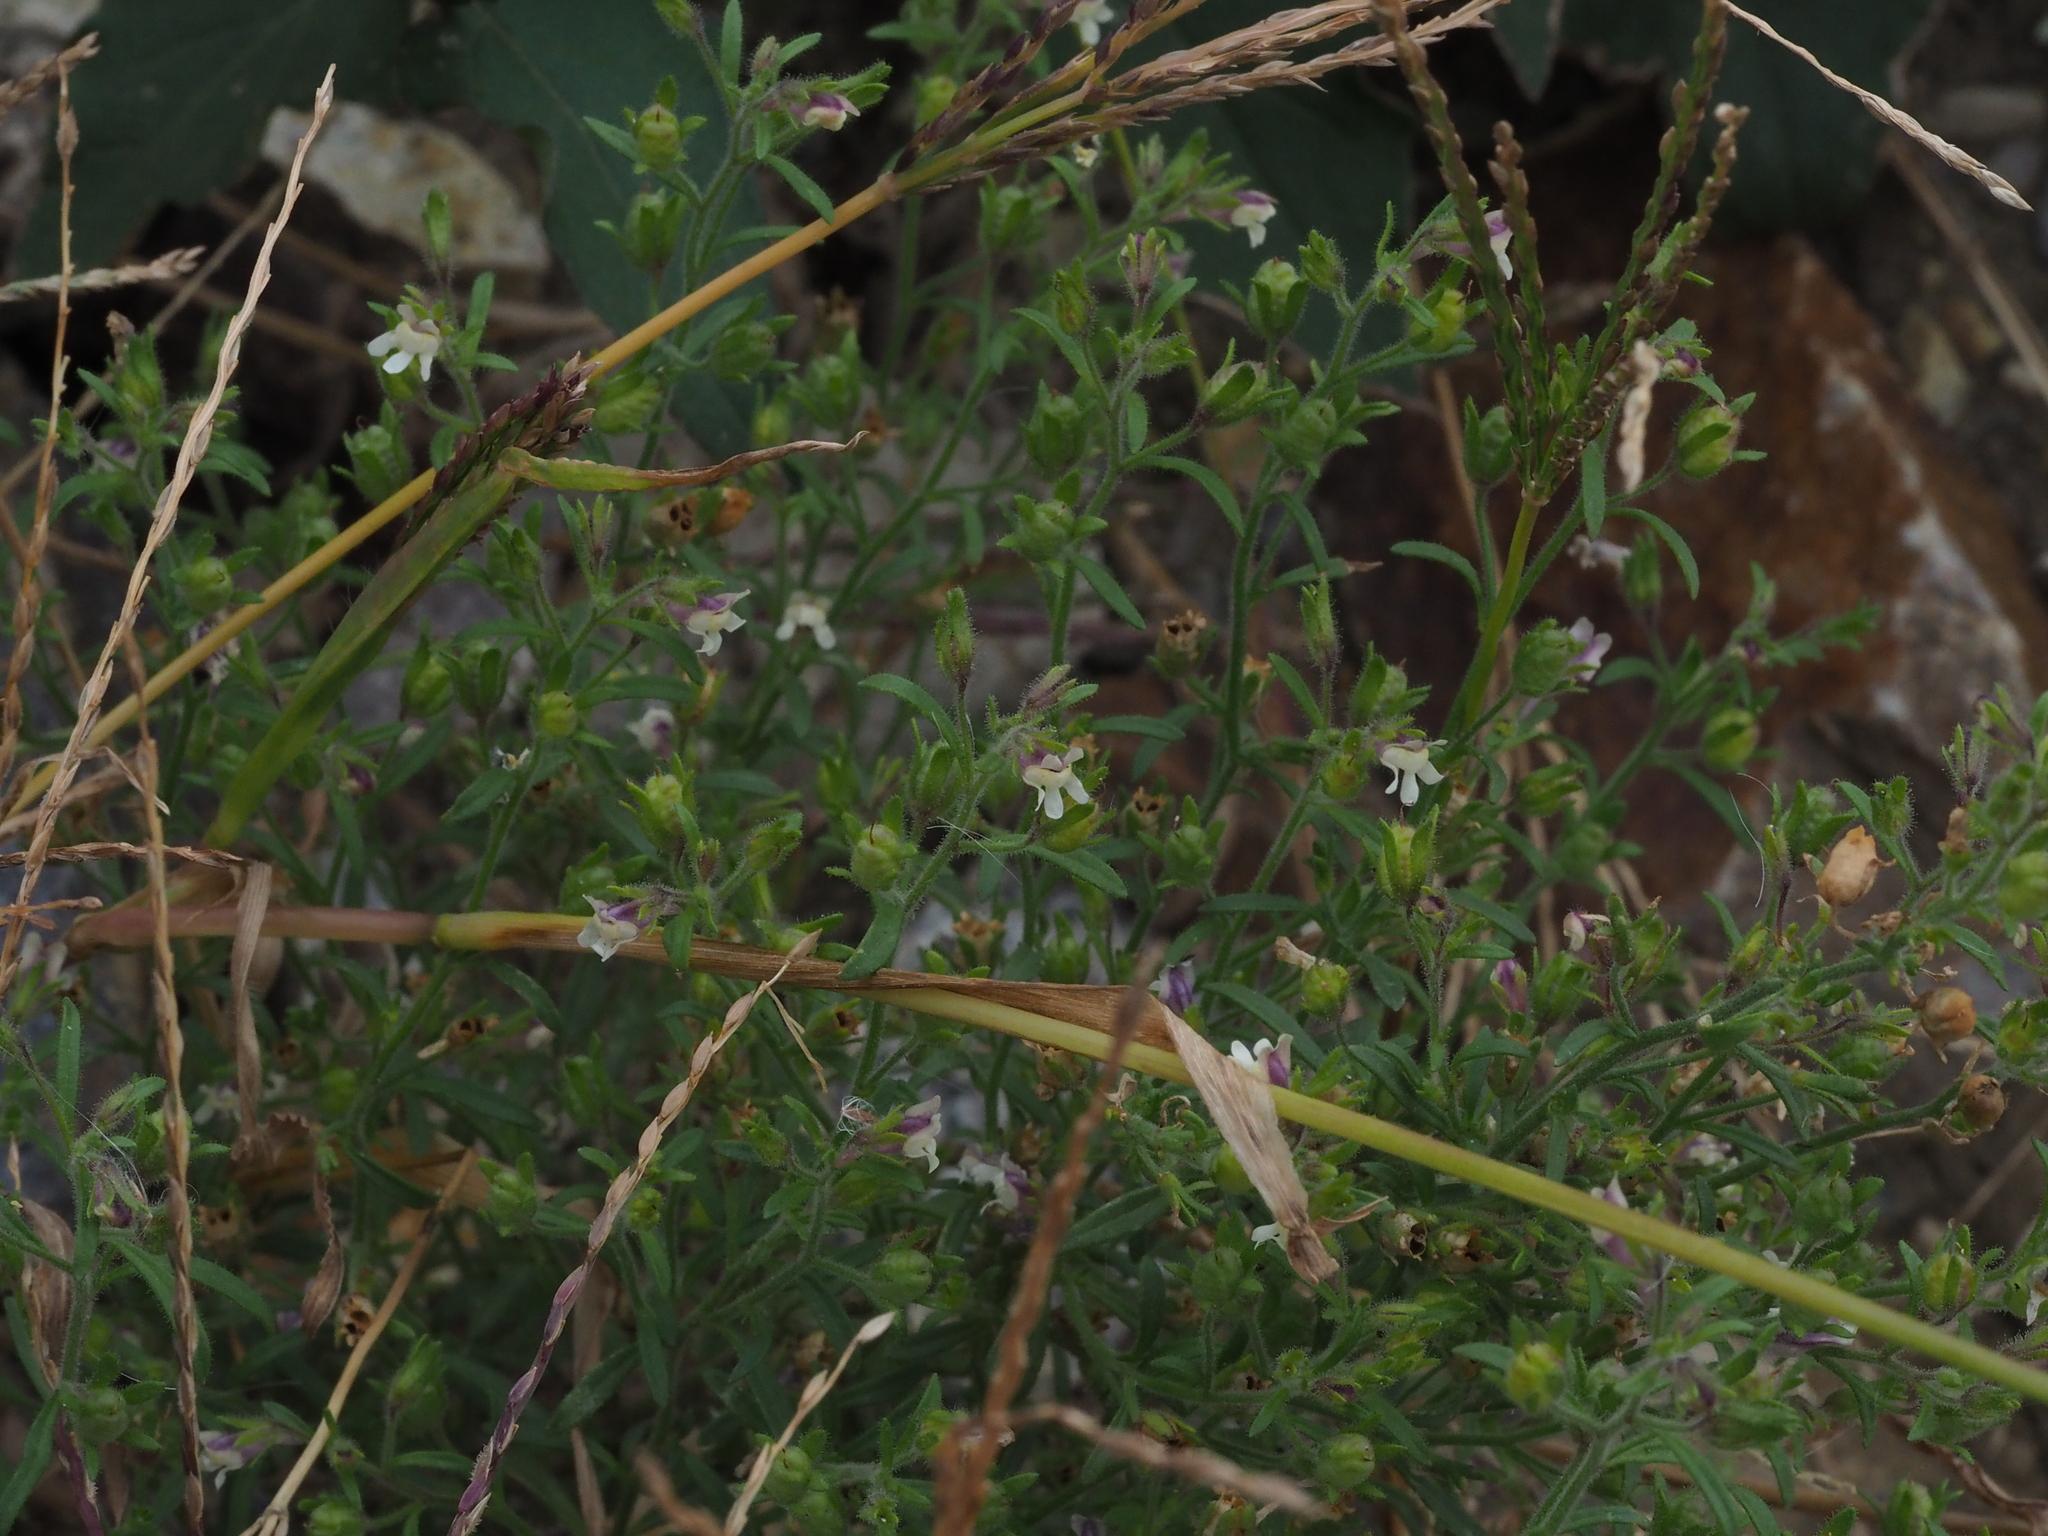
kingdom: Plantae
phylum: Tracheophyta
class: Magnoliopsida
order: Lamiales
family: Plantaginaceae
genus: Chaenorhinum
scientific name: Chaenorhinum minus
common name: Dwarf snapdragon
